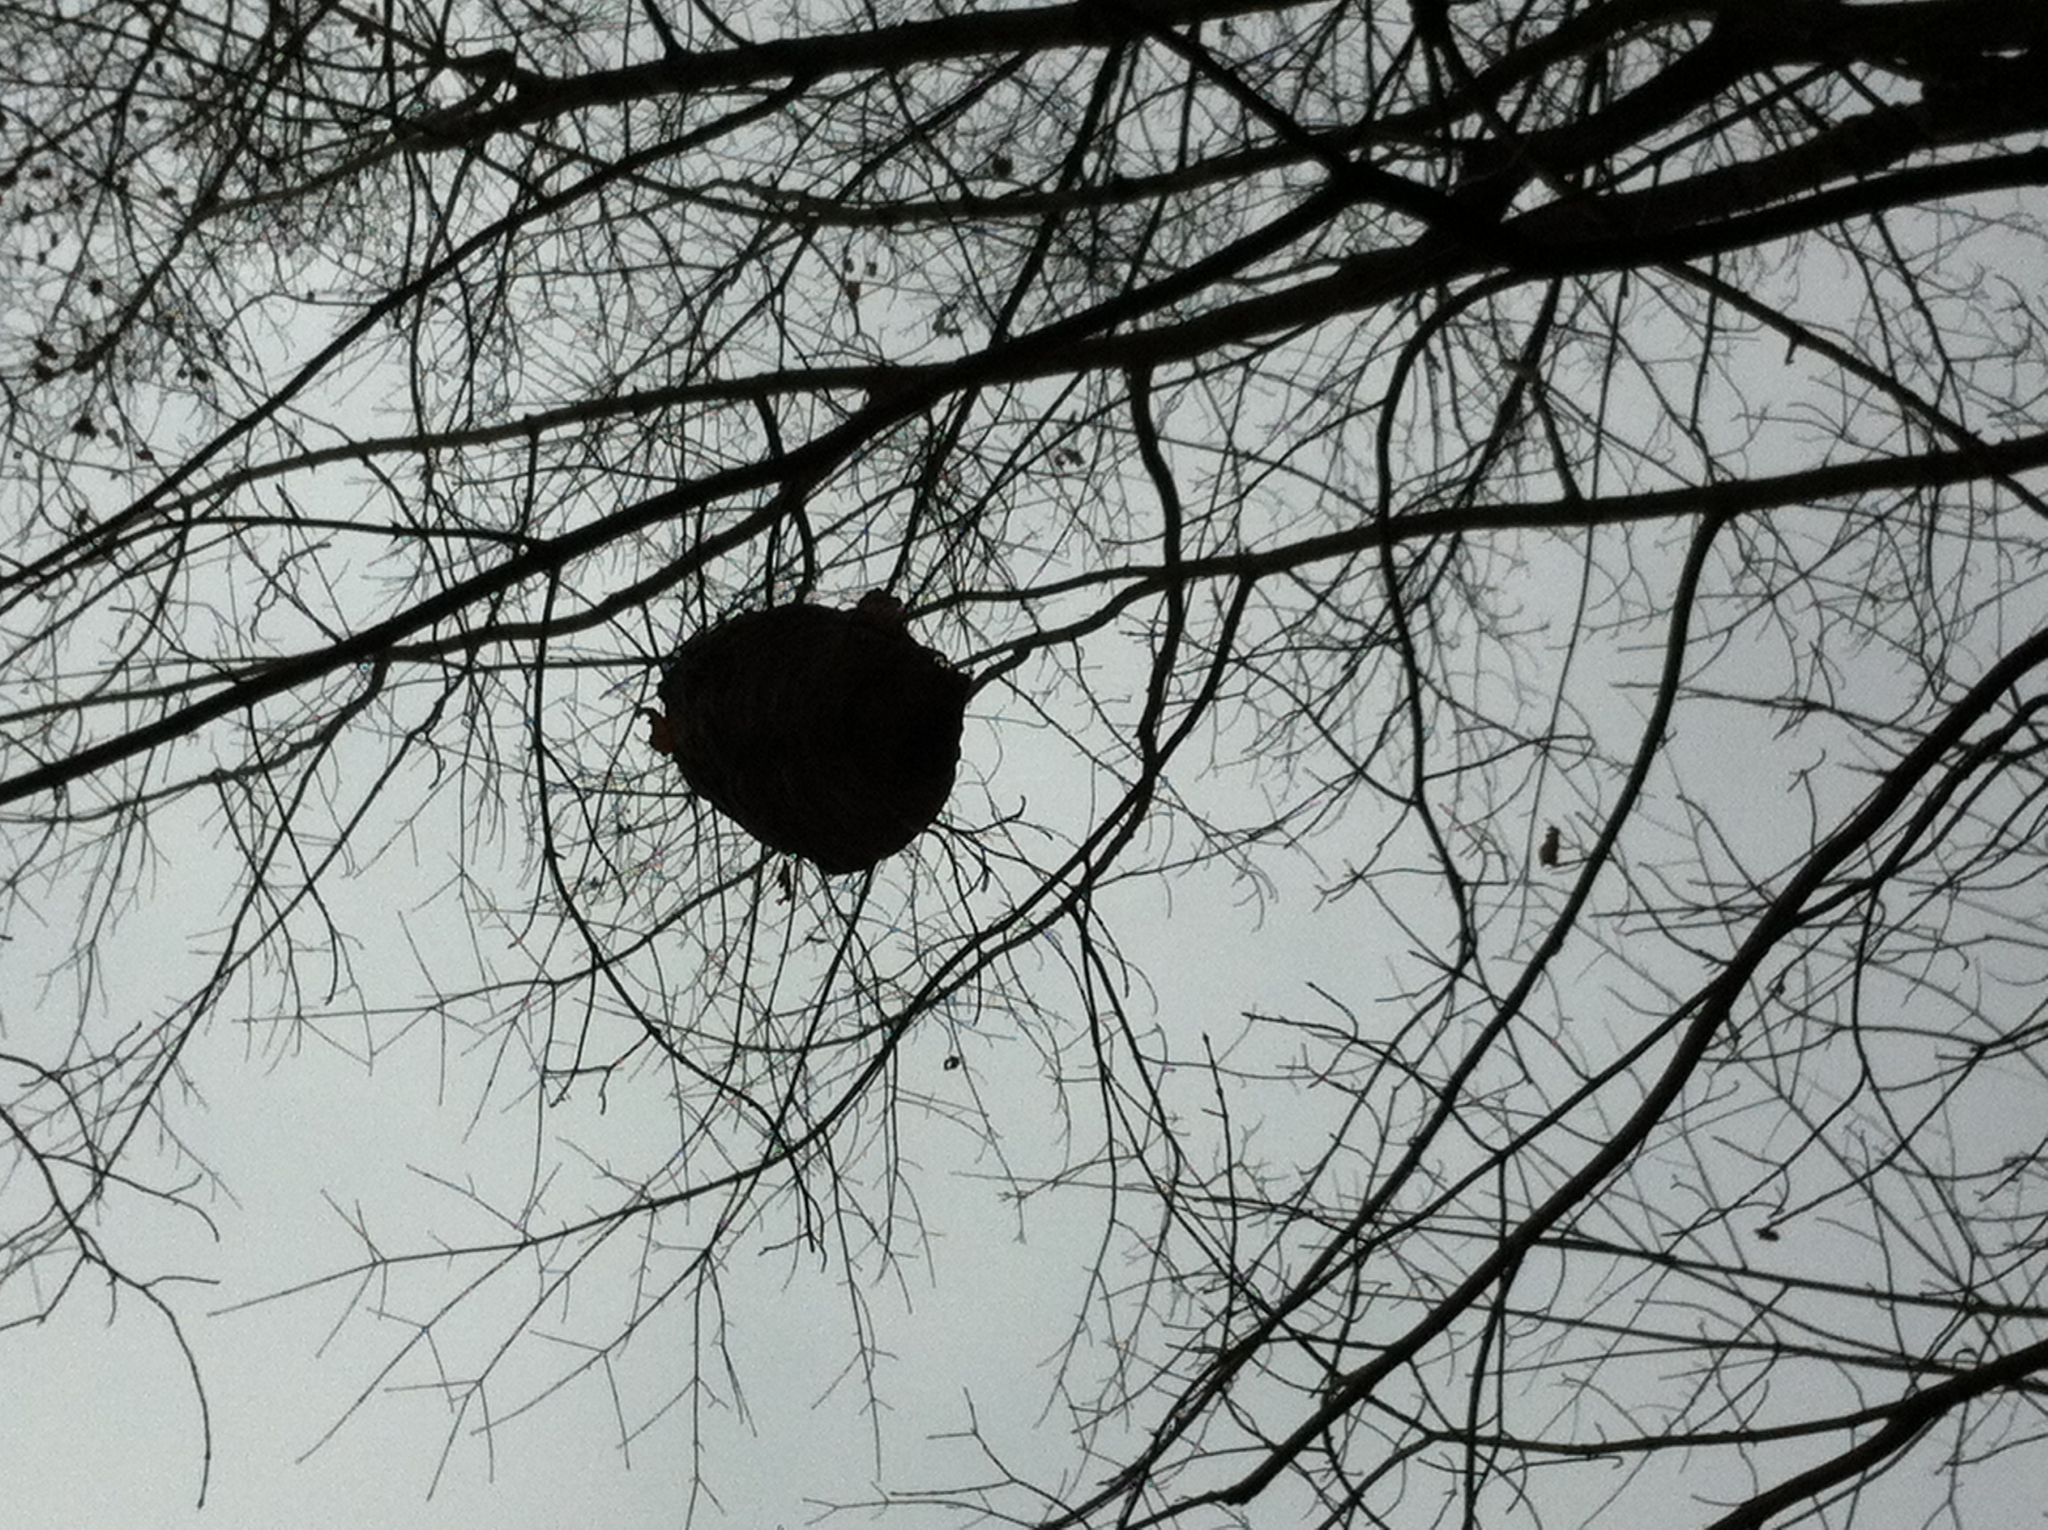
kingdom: Animalia
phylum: Arthropoda
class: Insecta
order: Hymenoptera
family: Vespidae
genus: Dolichovespula
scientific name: Dolichovespula maculata
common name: Bald-faced hornet
